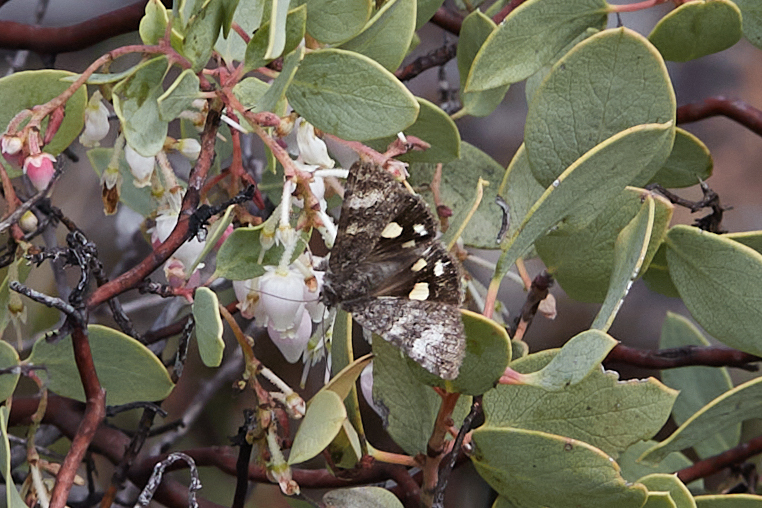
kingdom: Animalia
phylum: Arthropoda
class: Insecta
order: Lepidoptera
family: Erebidae
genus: Litocala
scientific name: Litocala sexsignata
